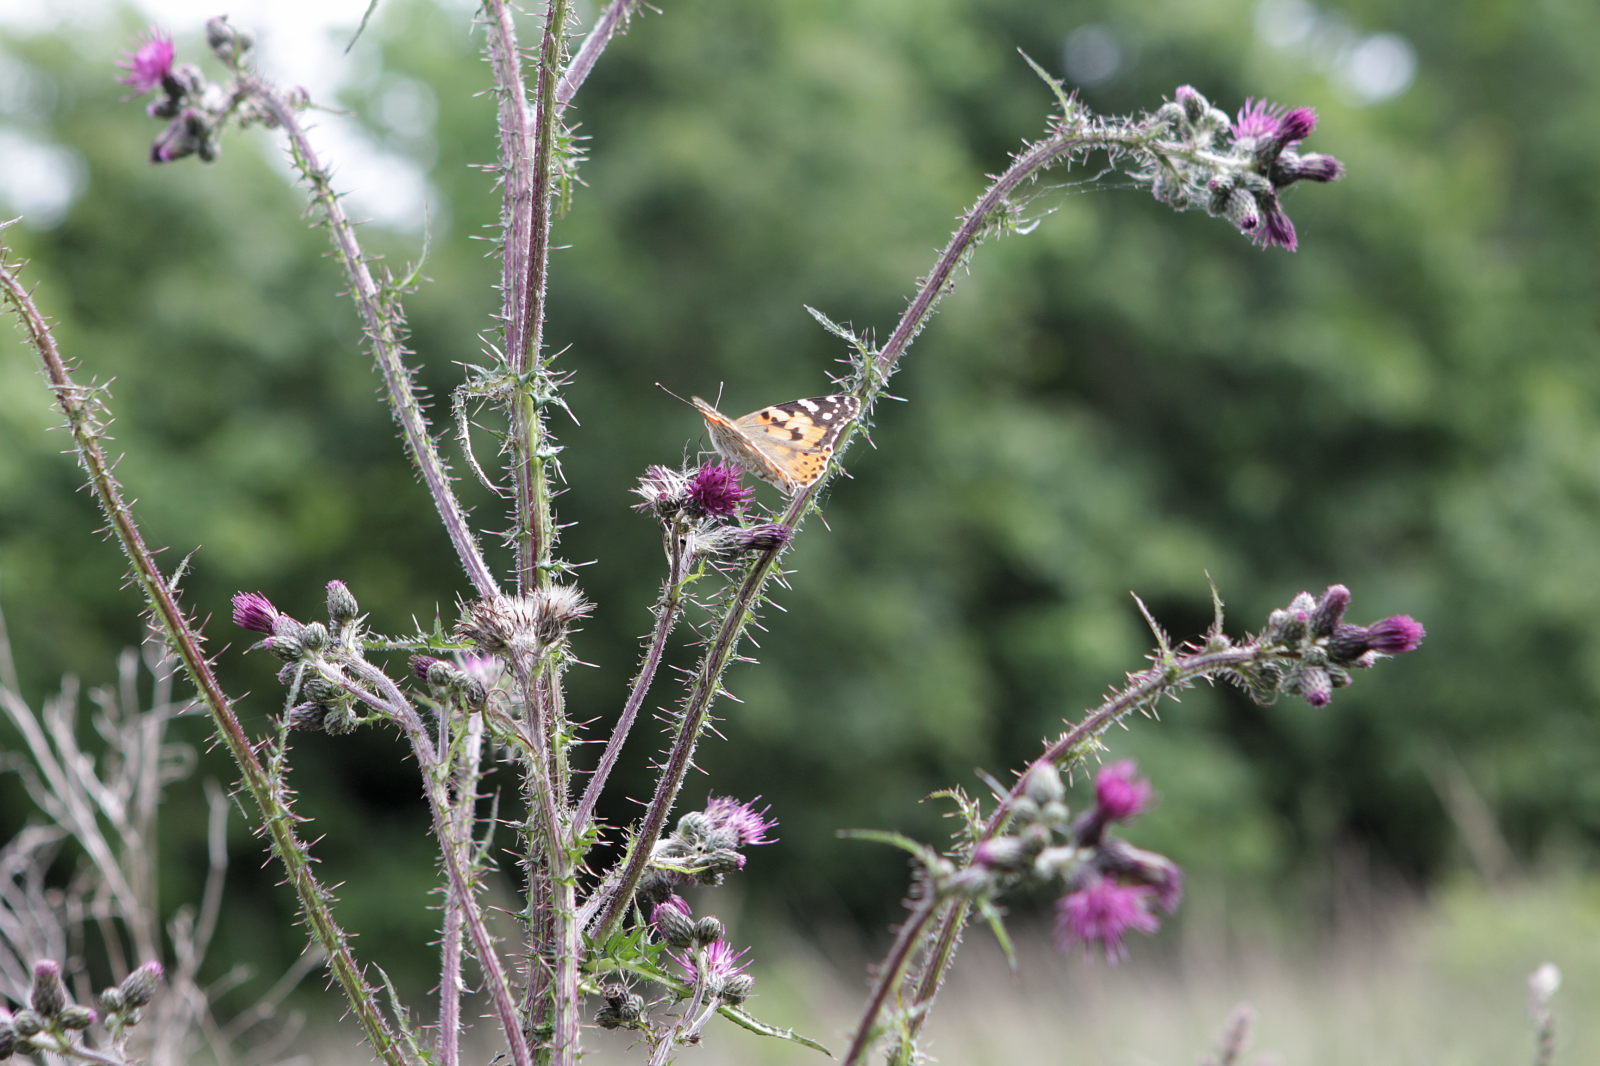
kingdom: Animalia
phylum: Arthropoda
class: Insecta
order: Lepidoptera
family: Nymphalidae
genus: Vanessa
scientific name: Vanessa cardui
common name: Painted lady
